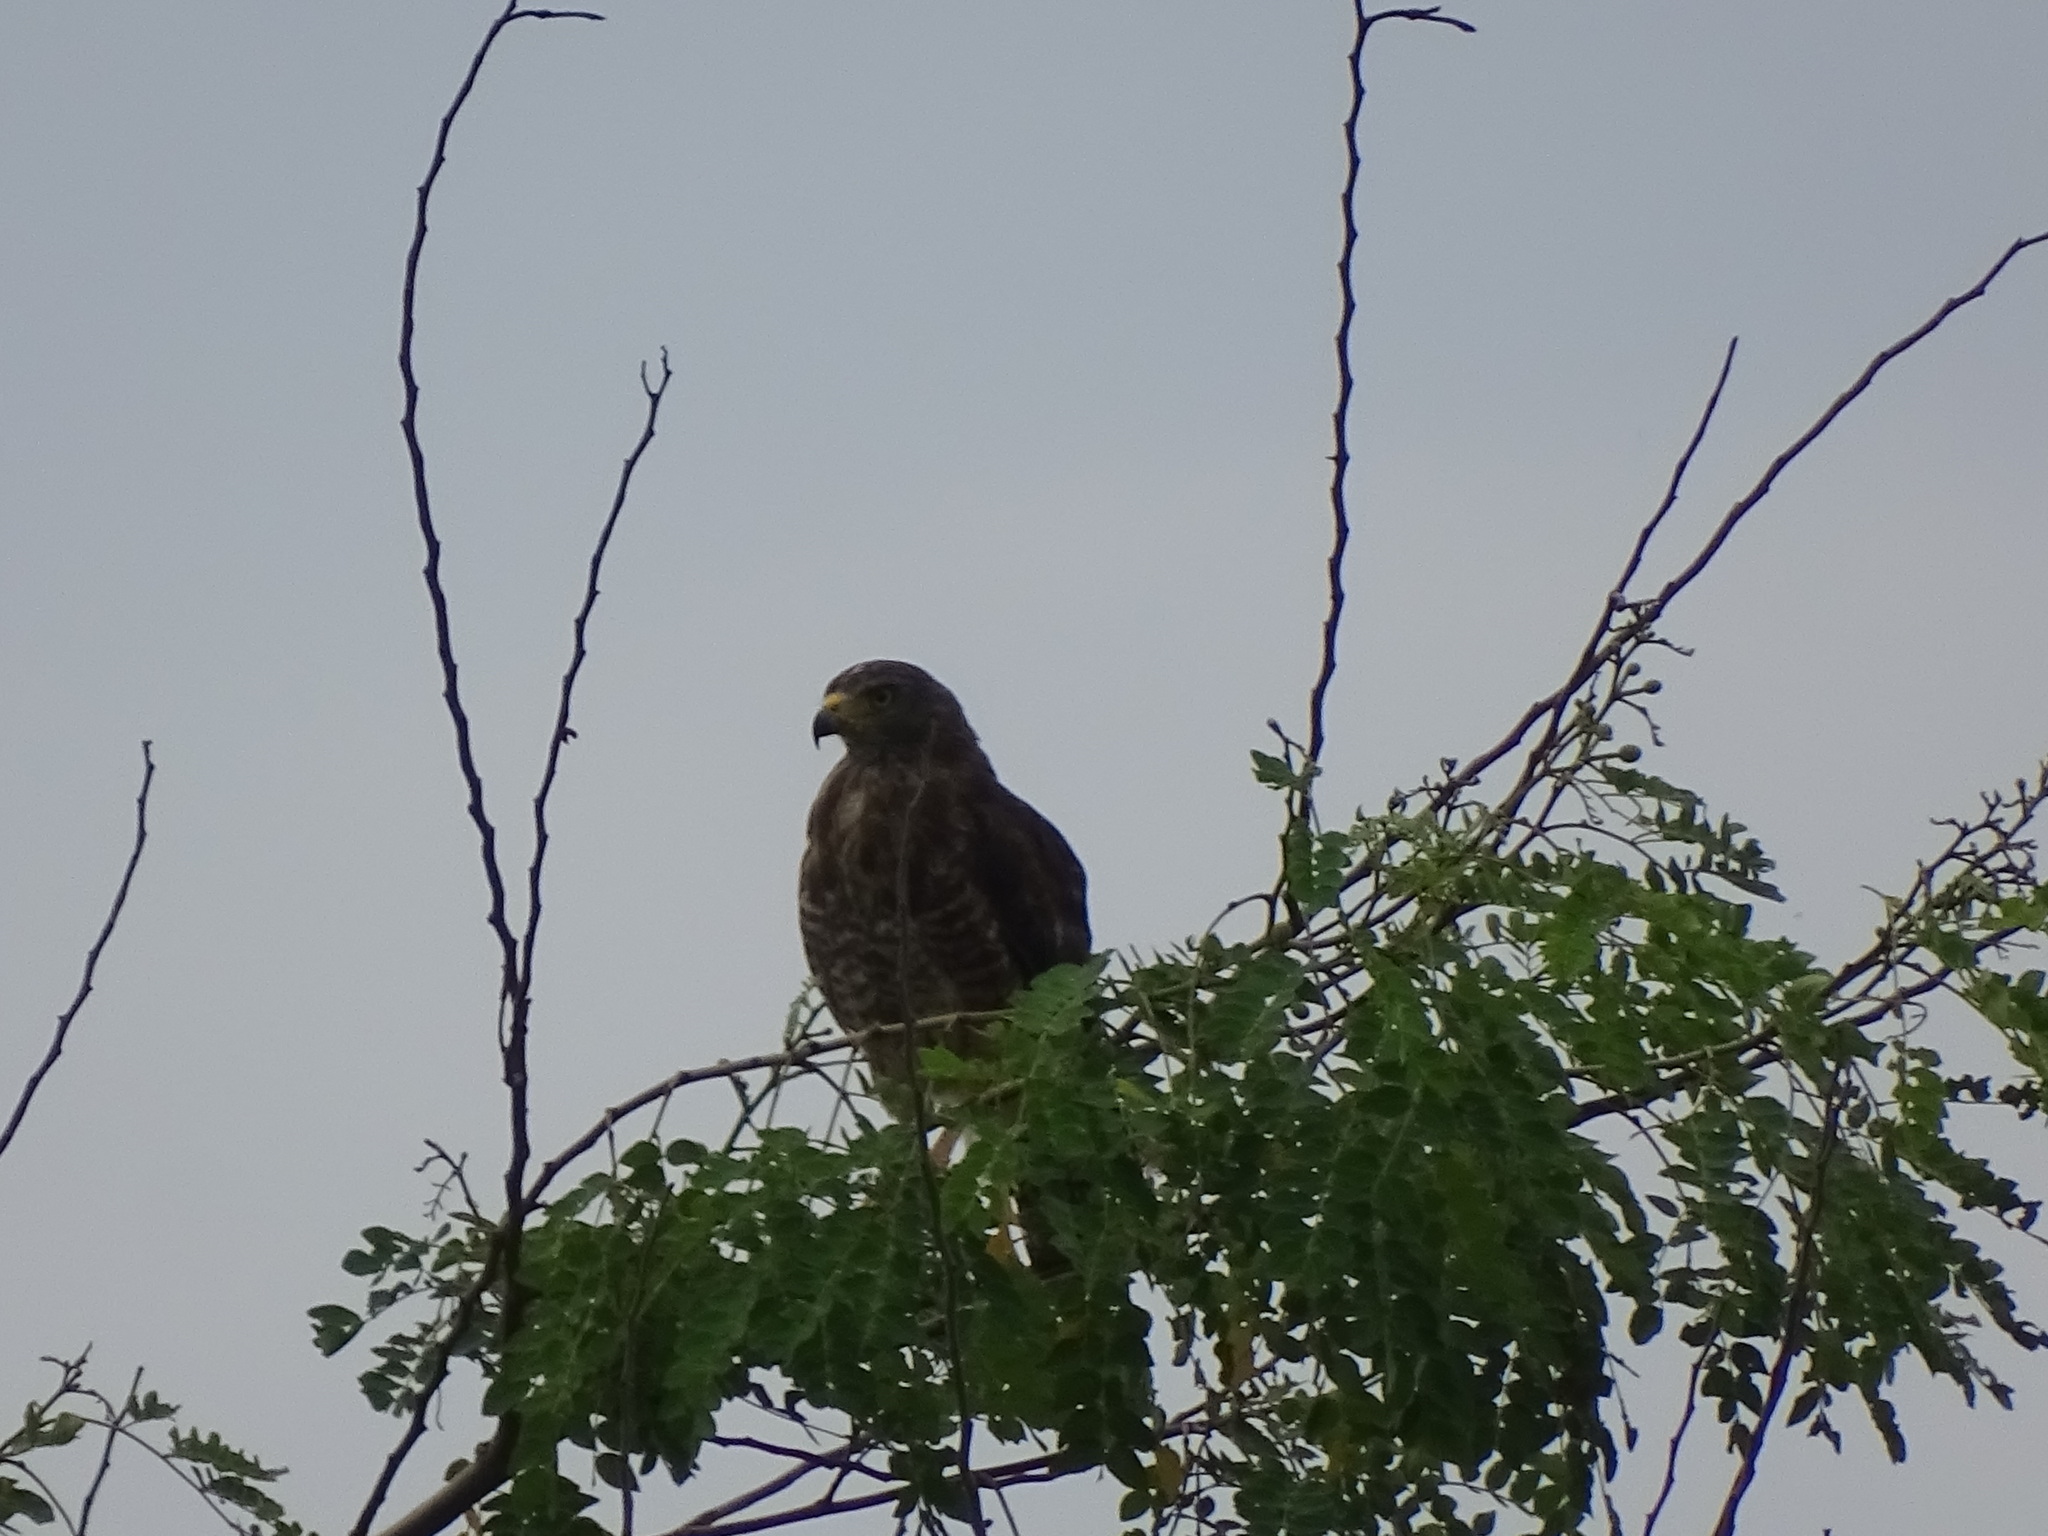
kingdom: Animalia
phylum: Chordata
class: Aves
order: Accipitriformes
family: Accipitridae
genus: Rupornis
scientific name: Rupornis magnirostris
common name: Roadside hawk
